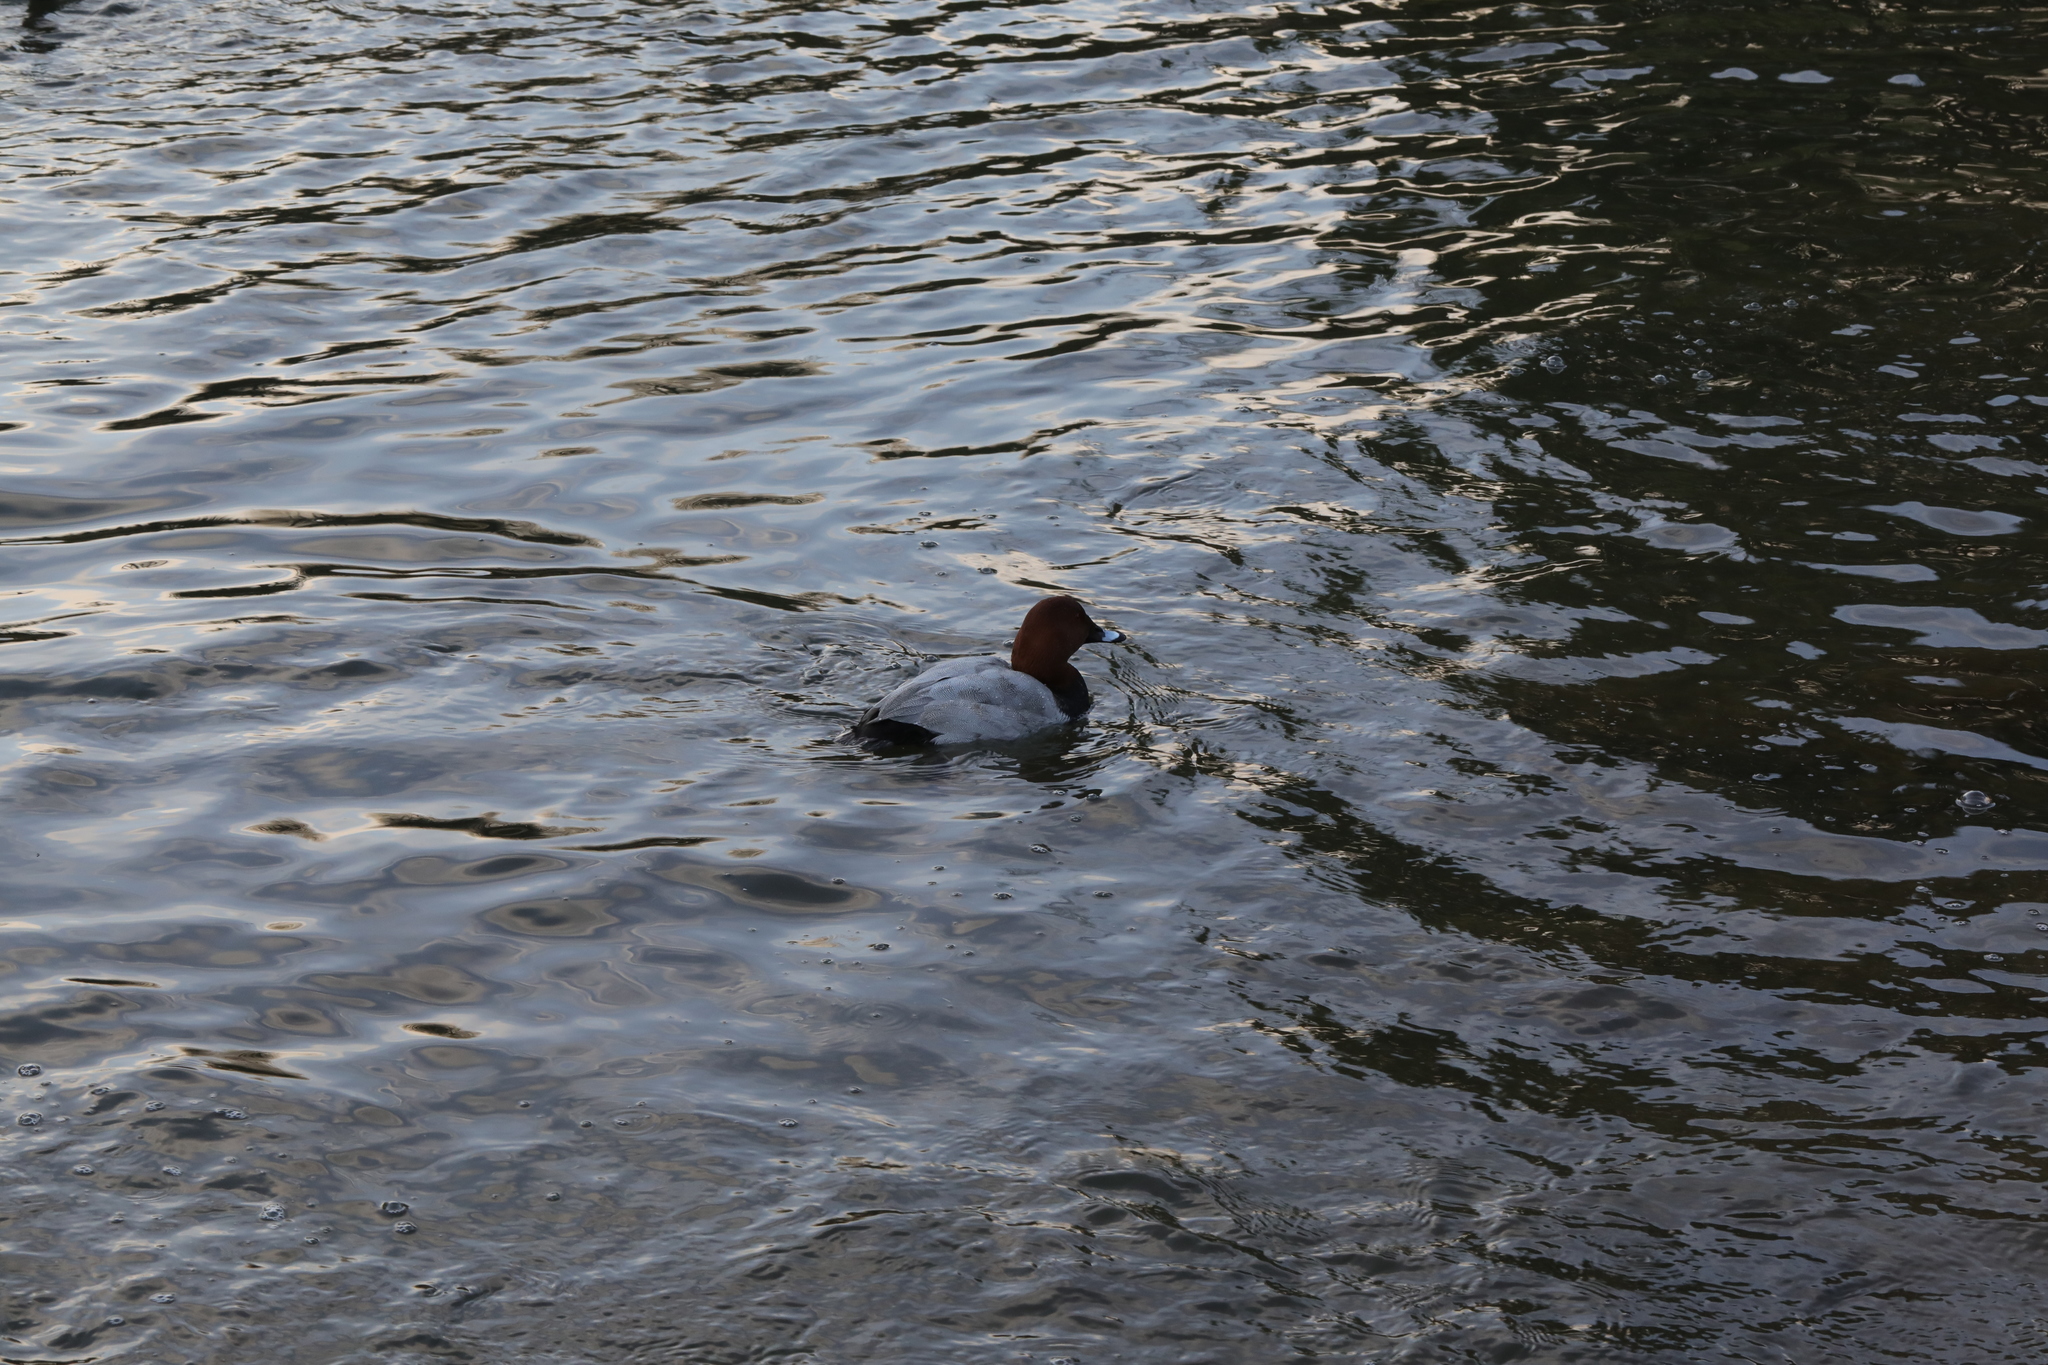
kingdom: Animalia
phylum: Chordata
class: Aves
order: Anseriformes
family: Anatidae
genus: Aythya
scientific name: Aythya ferina
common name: Common pochard
